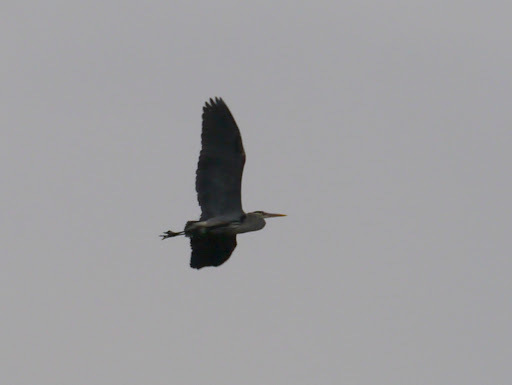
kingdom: Animalia
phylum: Chordata
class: Aves
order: Pelecaniformes
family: Ardeidae
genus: Ardea
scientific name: Ardea herodias
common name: Great blue heron
